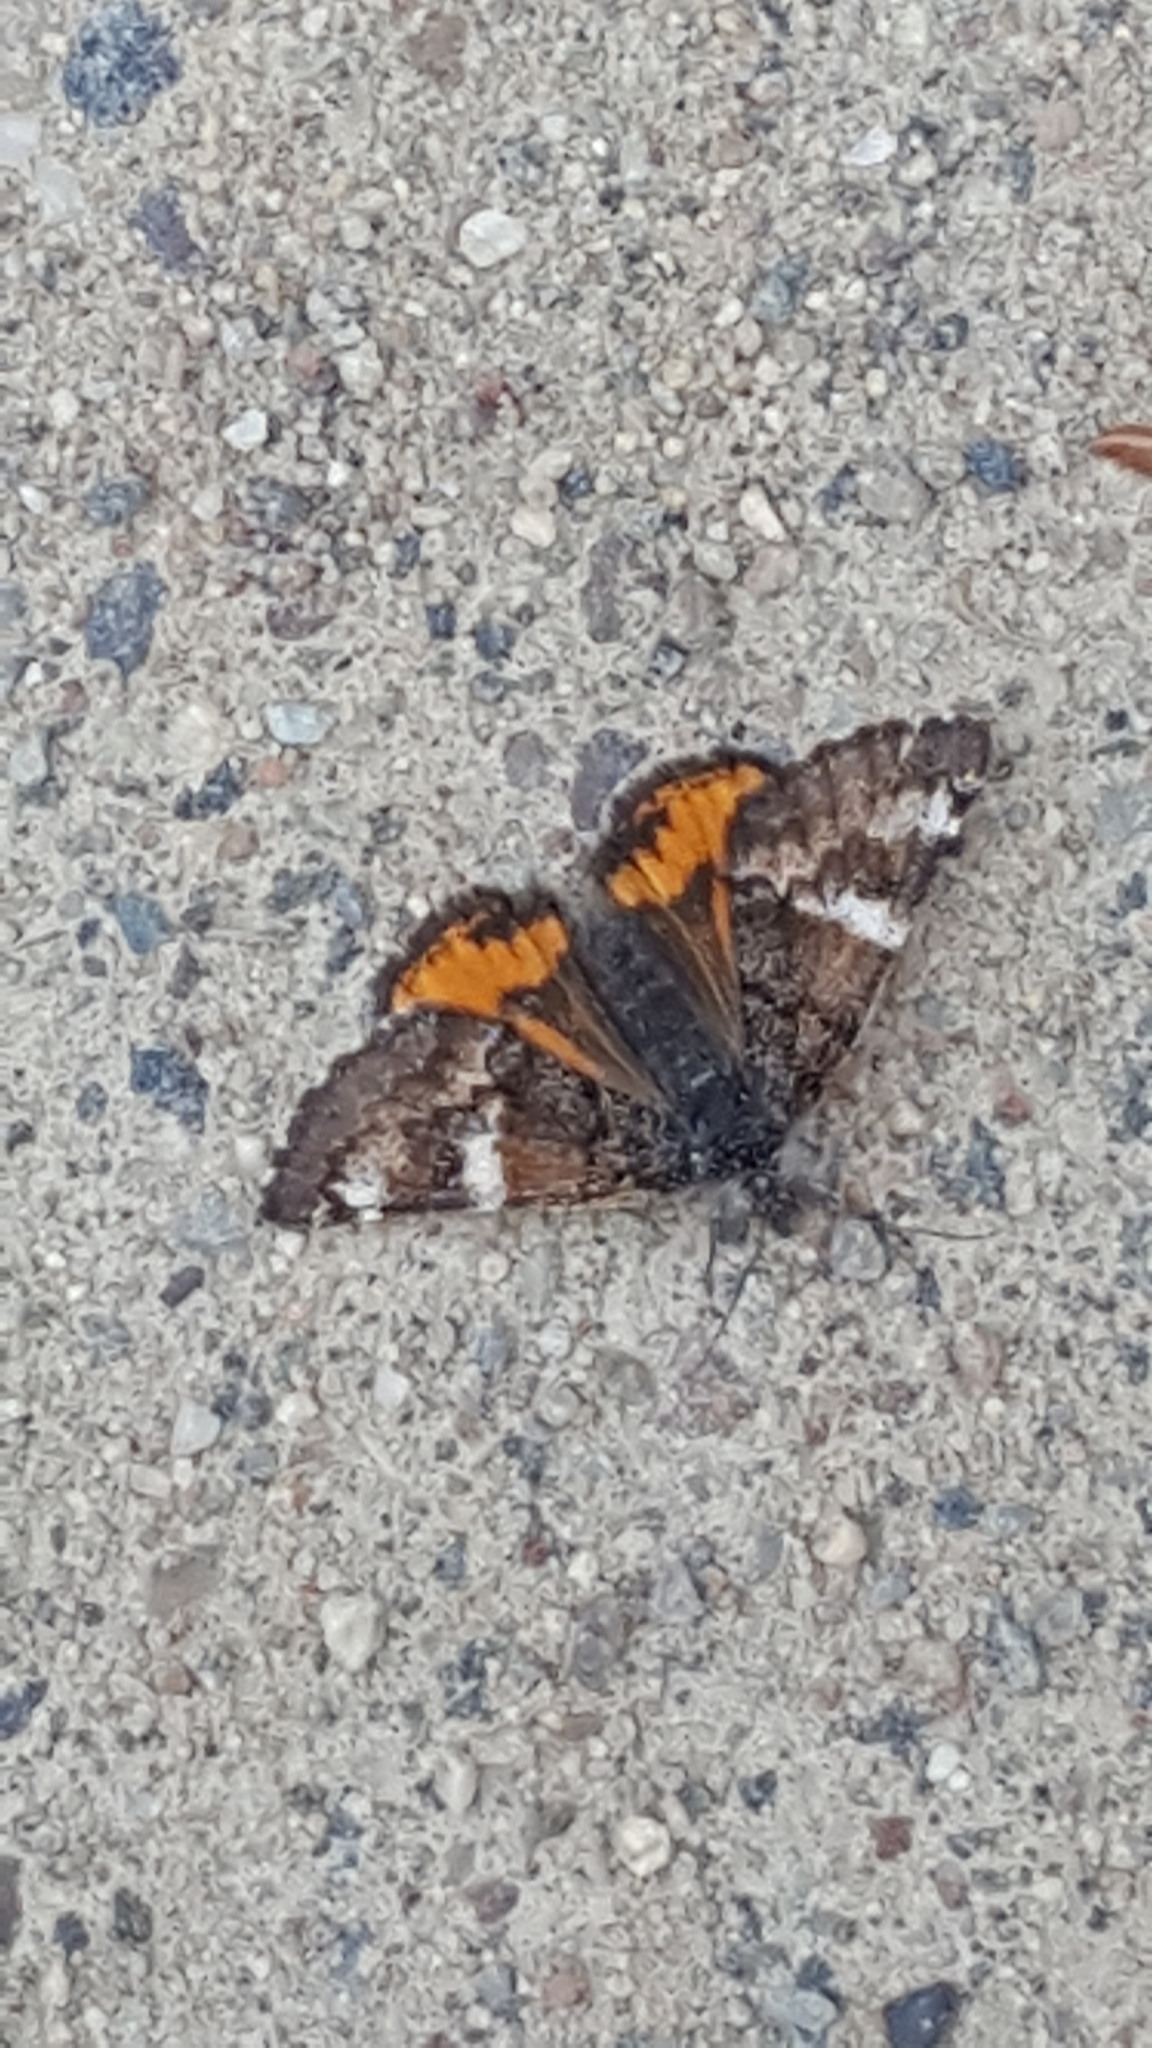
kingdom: Animalia
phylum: Arthropoda
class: Insecta
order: Lepidoptera
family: Geometridae
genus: Archiearis
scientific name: Archiearis infans
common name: First born geometer
